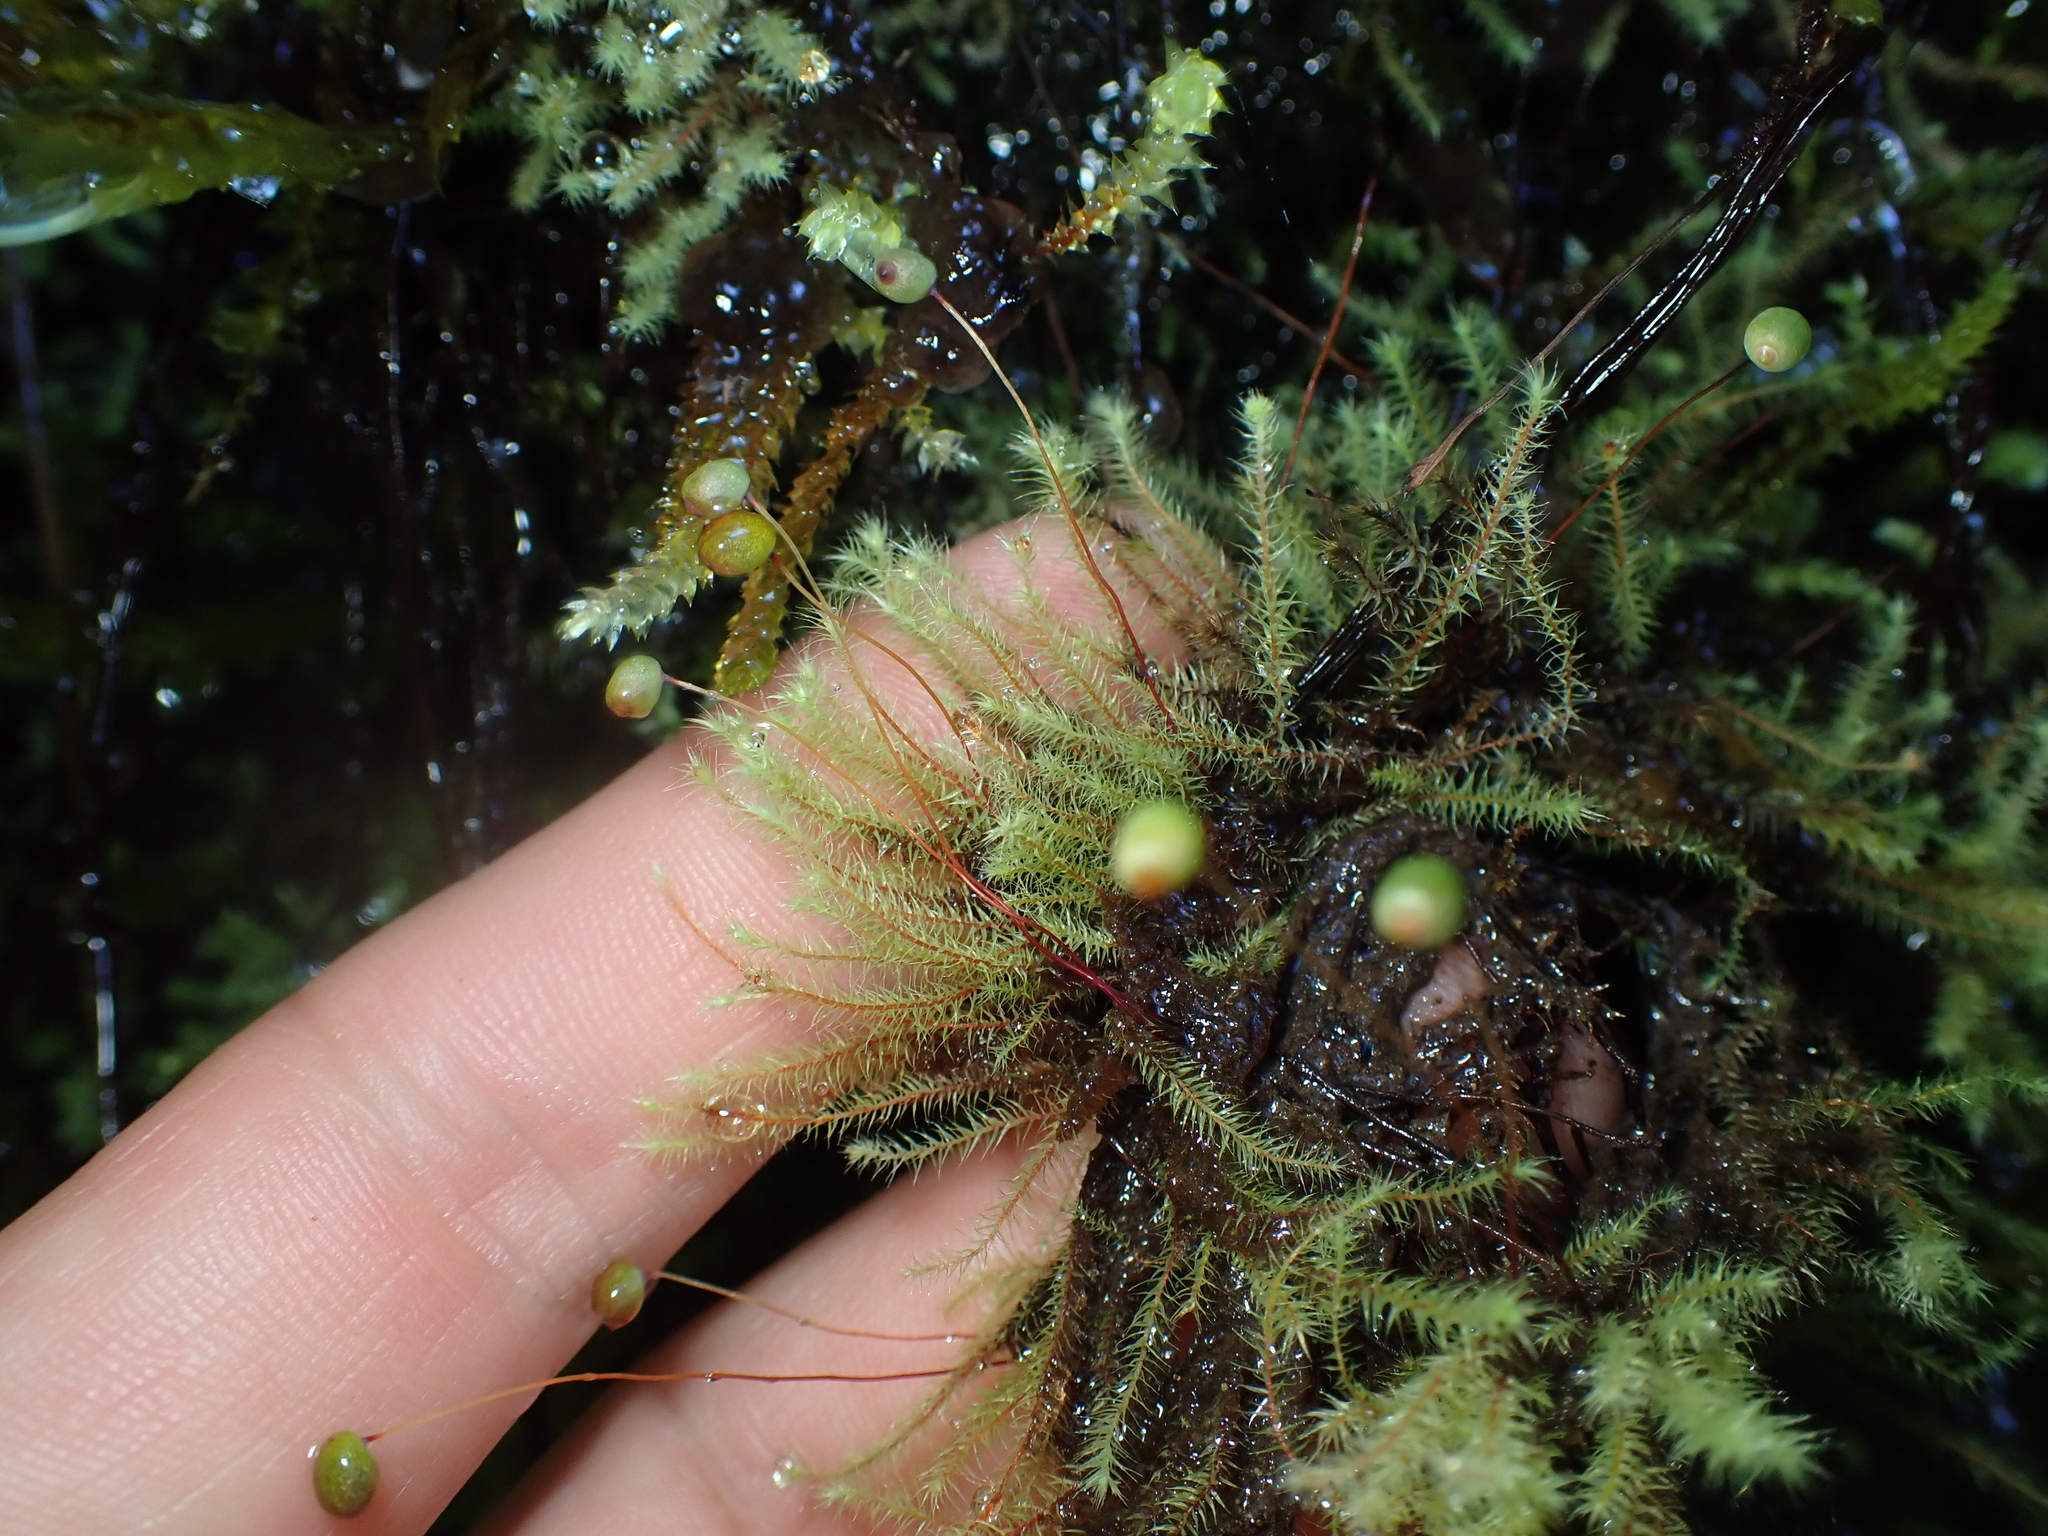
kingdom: Plantae
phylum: Bryophyta
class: Bryopsida
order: Bartramiales
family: Bartramiaceae
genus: Philonotis
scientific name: Philonotis tenuis
